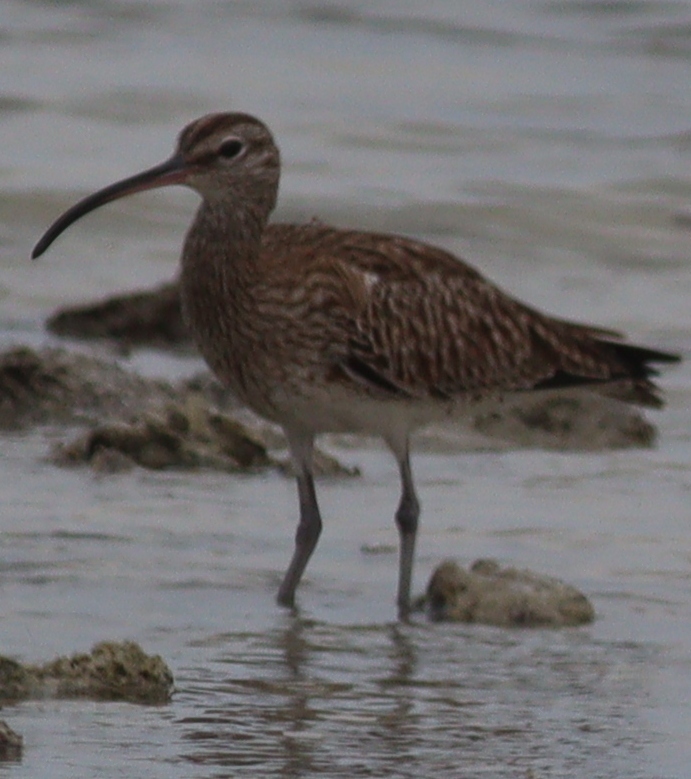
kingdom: Animalia
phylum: Chordata
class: Aves
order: Charadriiformes
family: Scolopacidae
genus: Numenius
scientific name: Numenius phaeopus
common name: Whimbrel
